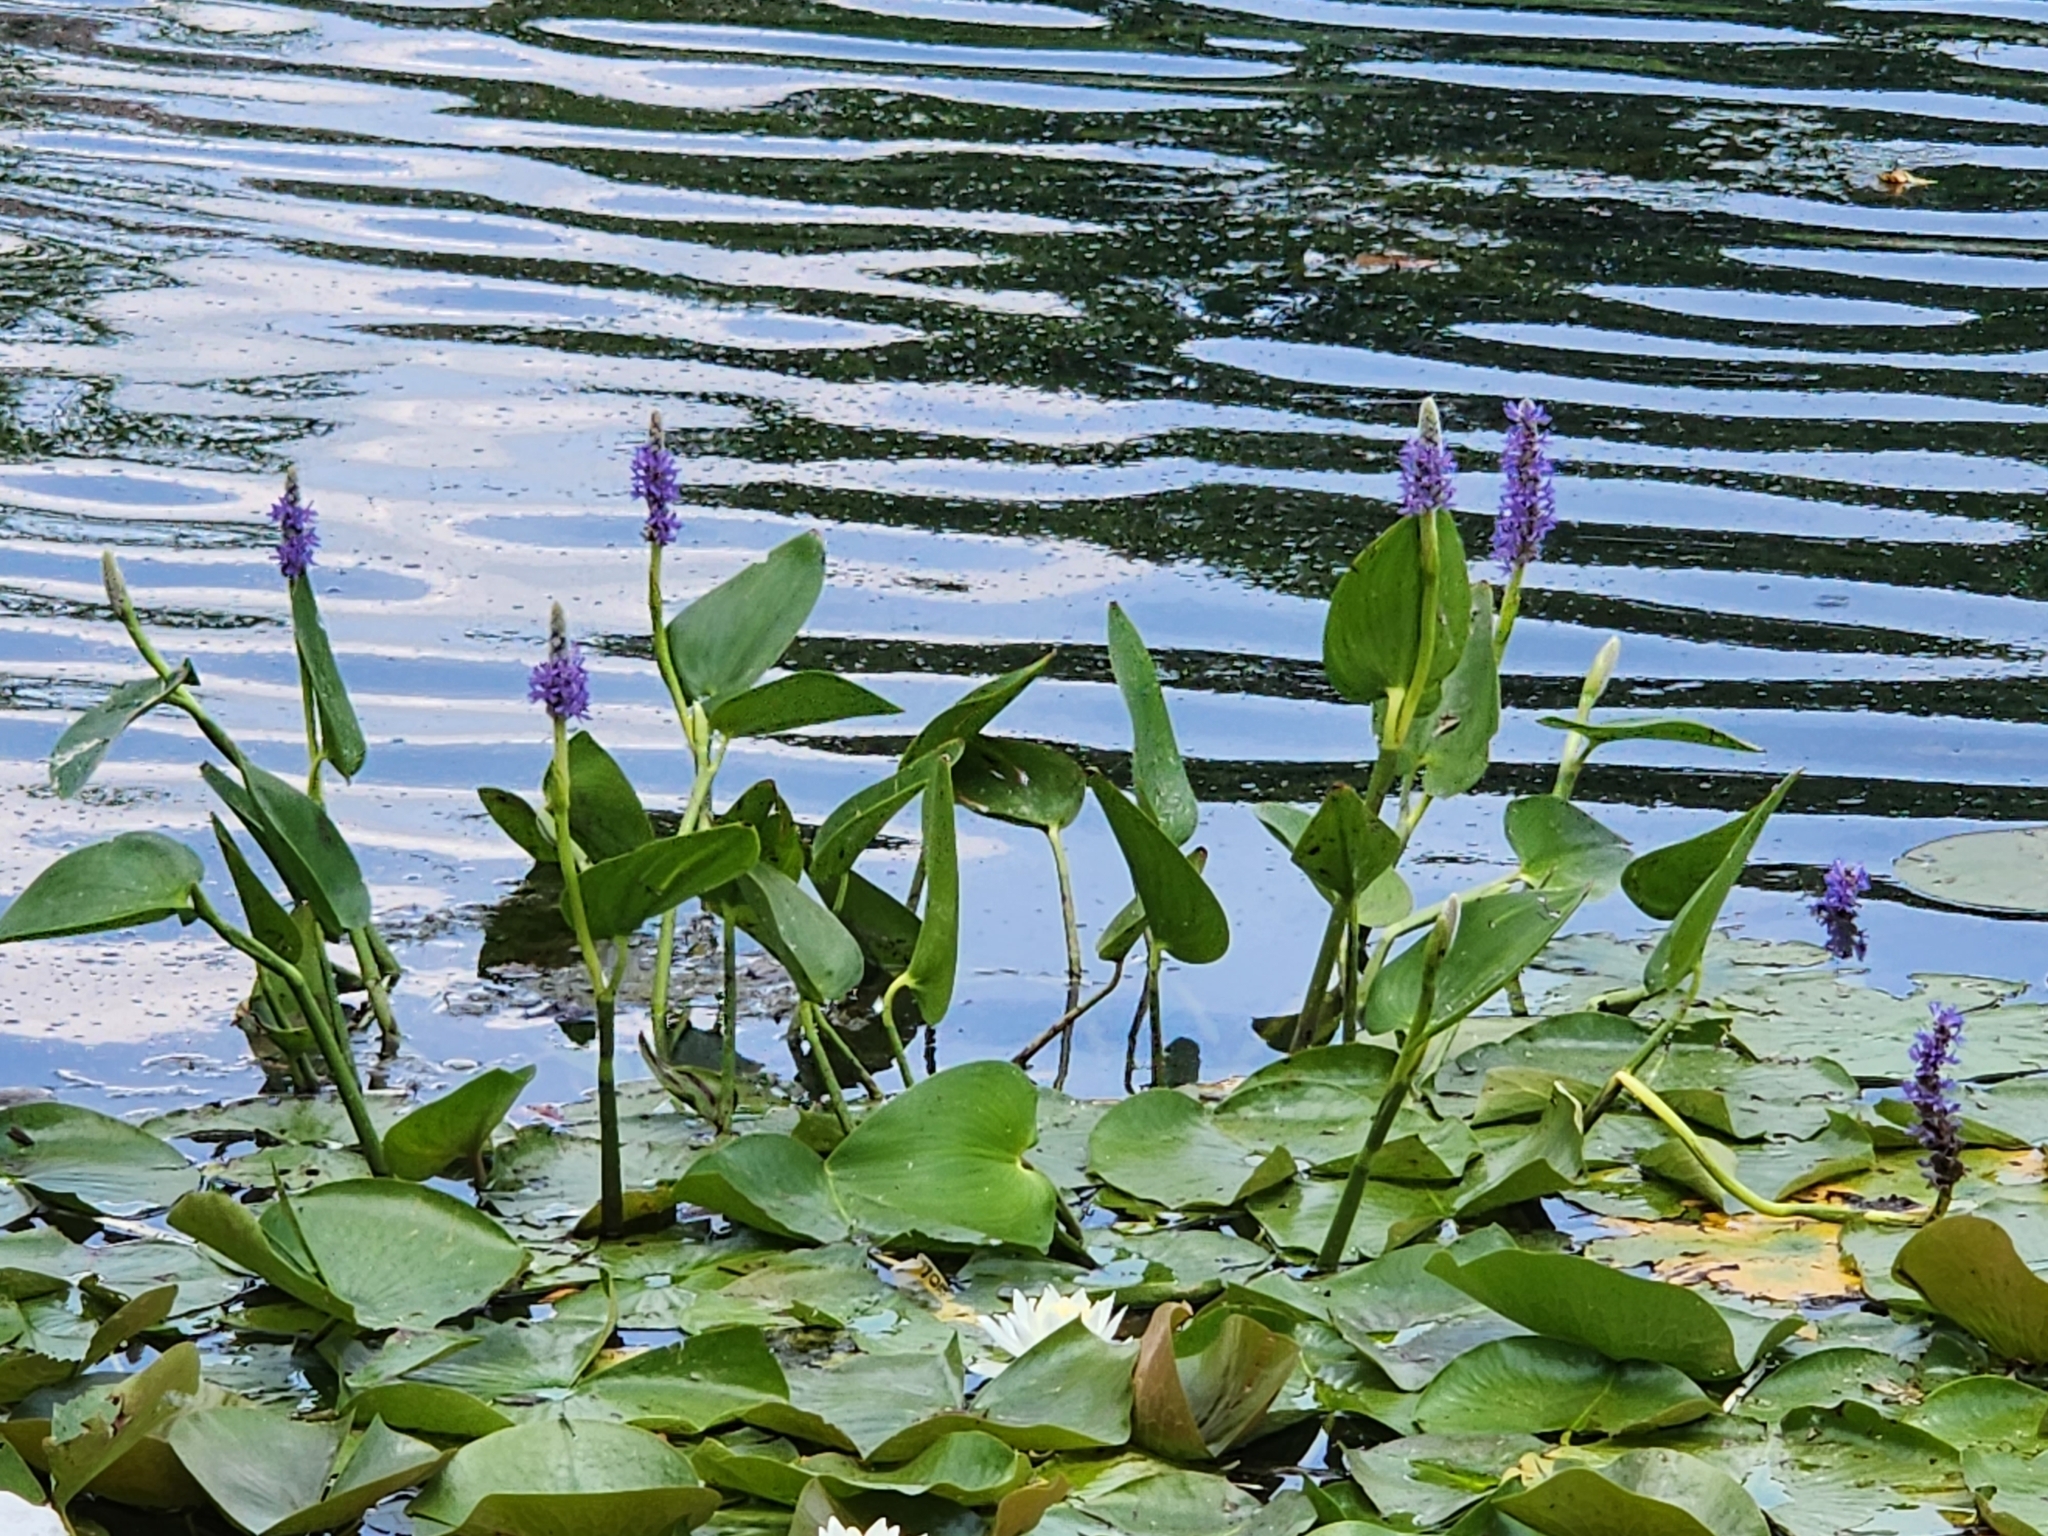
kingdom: Plantae
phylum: Tracheophyta
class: Liliopsida
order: Commelinales
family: Pontederiaceae
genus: Pontederia
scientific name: Pontederia cordata
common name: Pickerelweed
